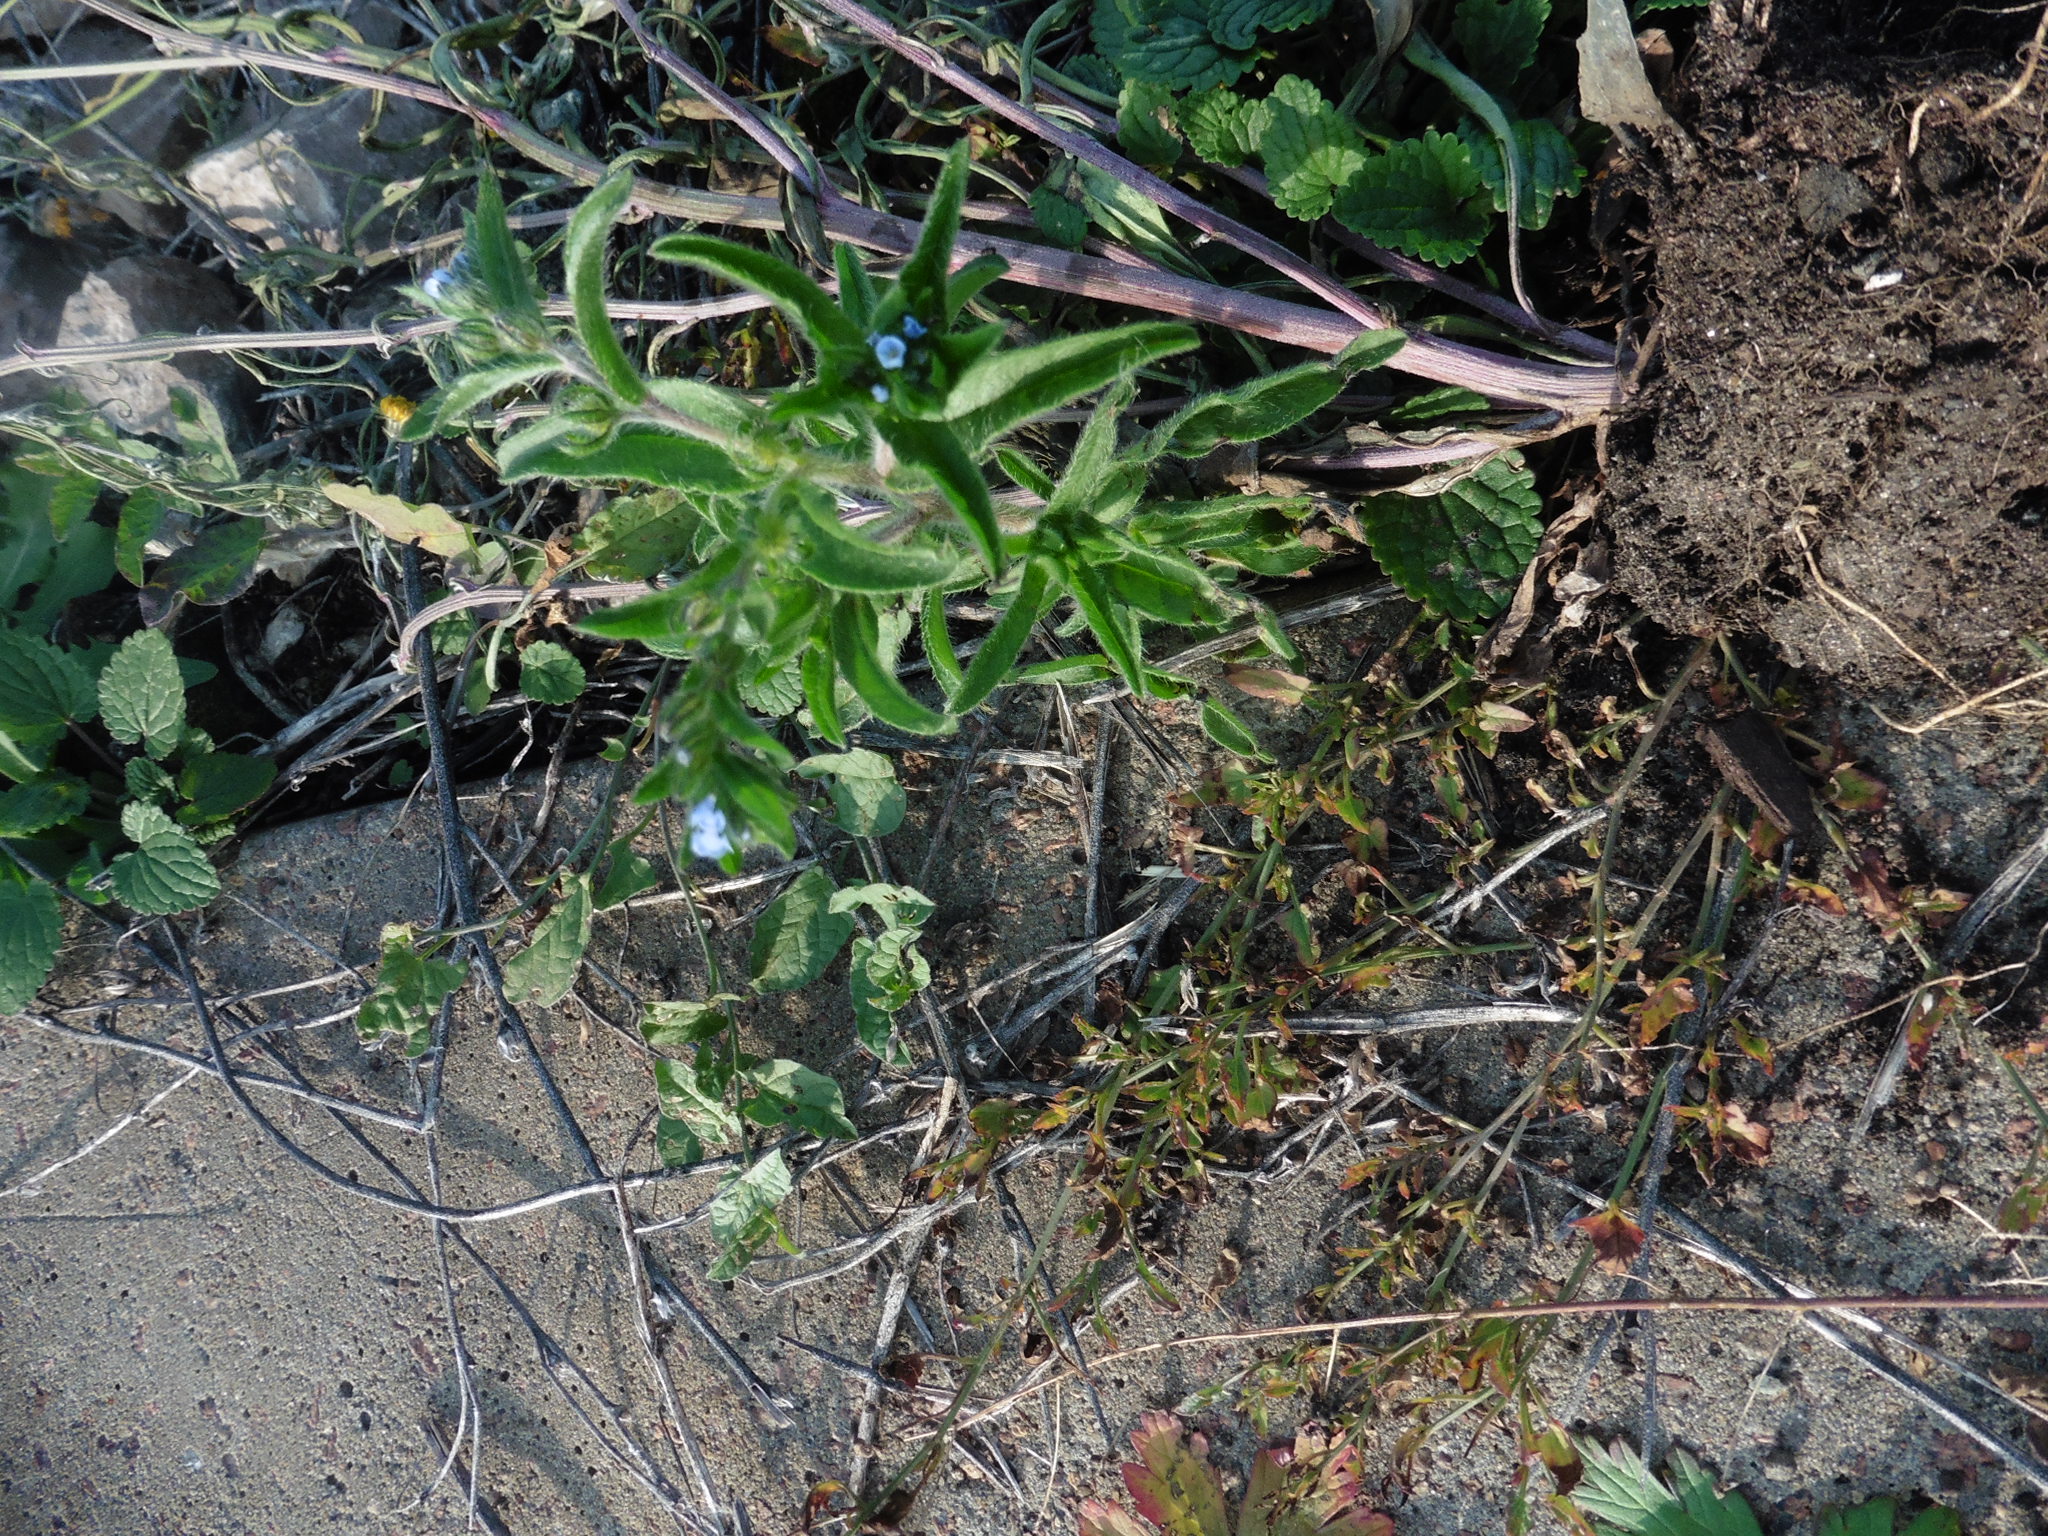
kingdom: Plantae
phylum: Tracheophyta
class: Magnoliopsida
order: Boraginales
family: Boraginaceae
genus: Lappula
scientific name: Lappula squarrosa
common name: European stickseed
